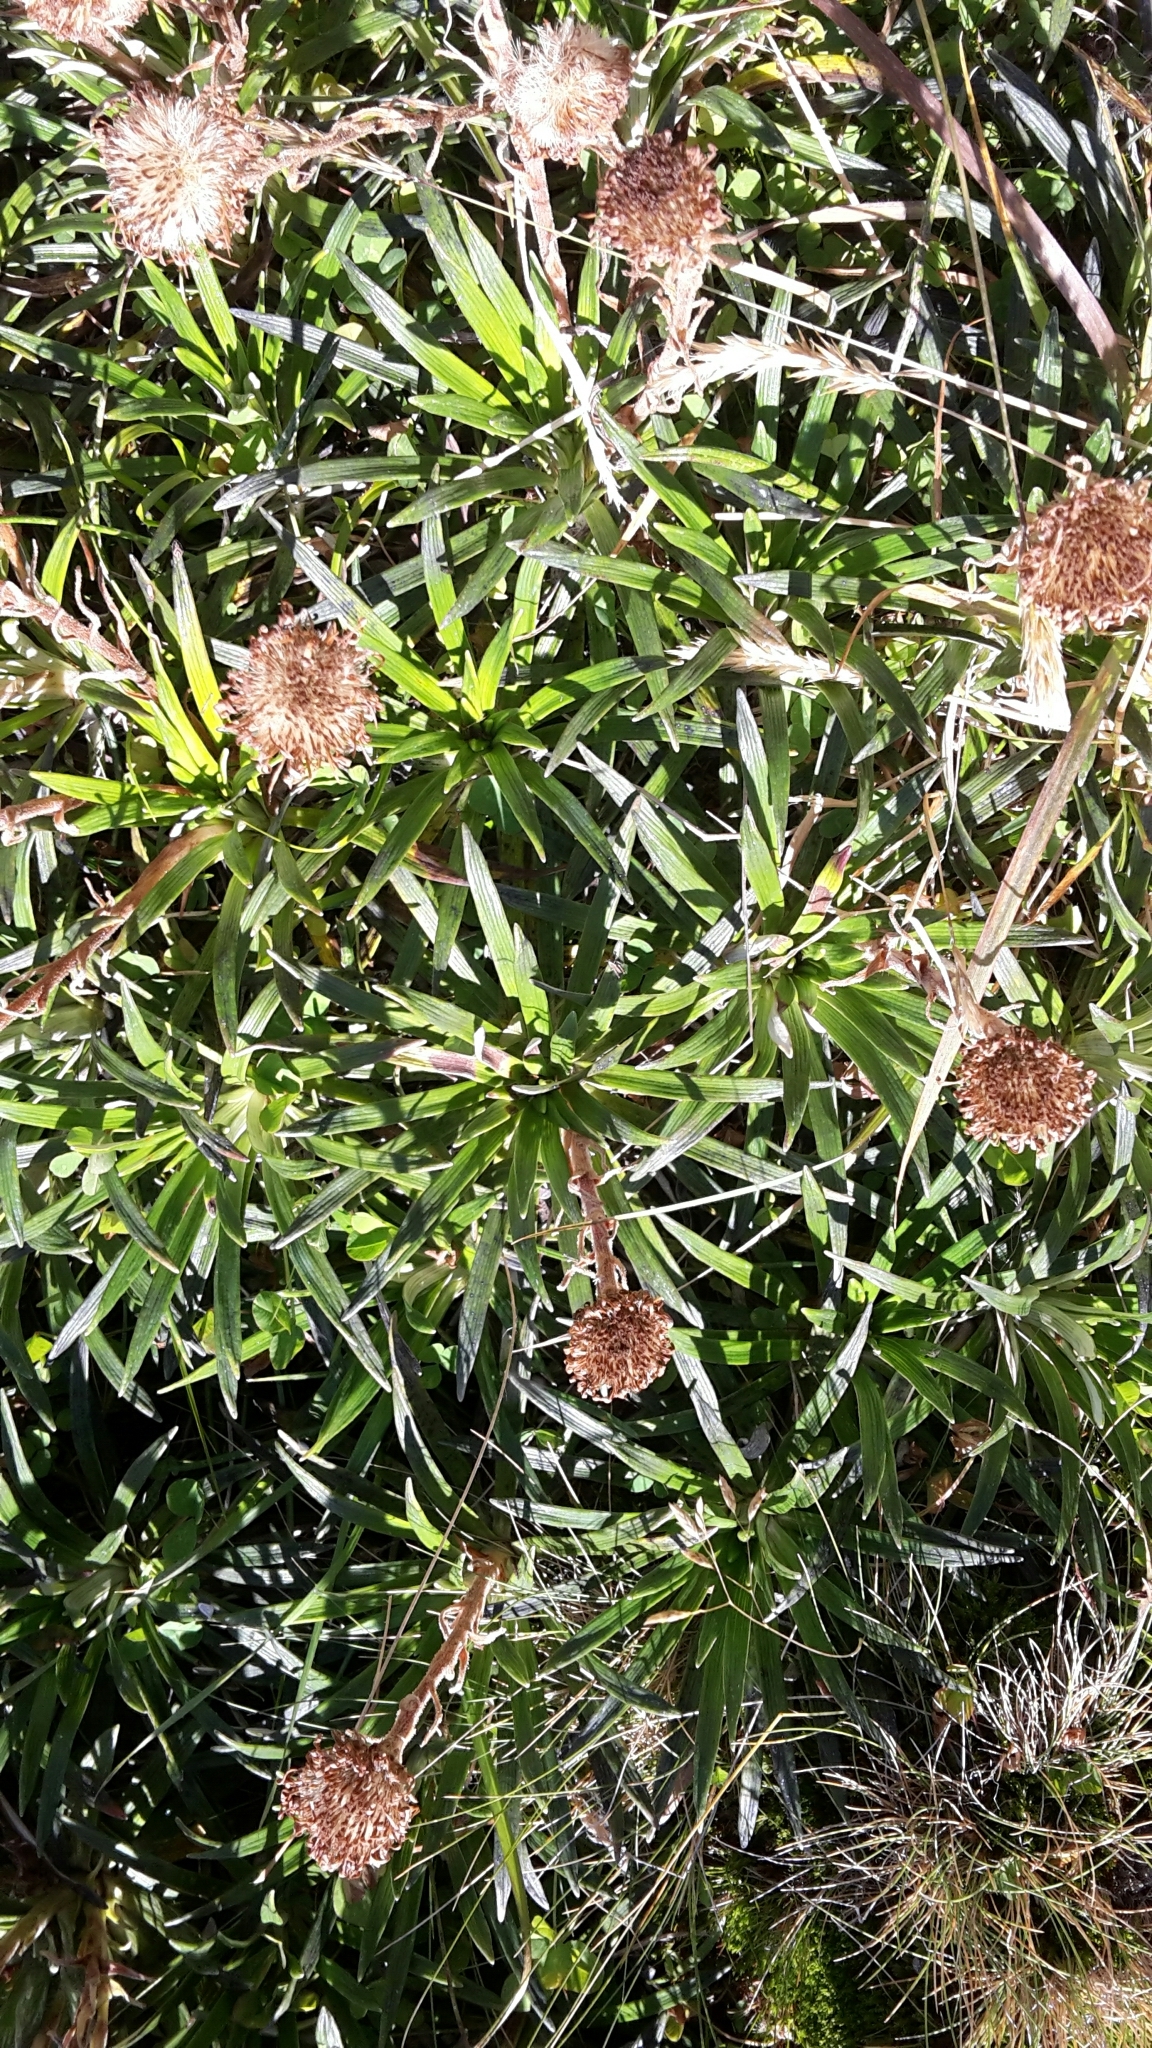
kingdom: Plantae
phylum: Tracheophyta
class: Magnoliopsida
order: Asterales
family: Asteraceae
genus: Celmisia
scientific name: Celmisia viscosa
